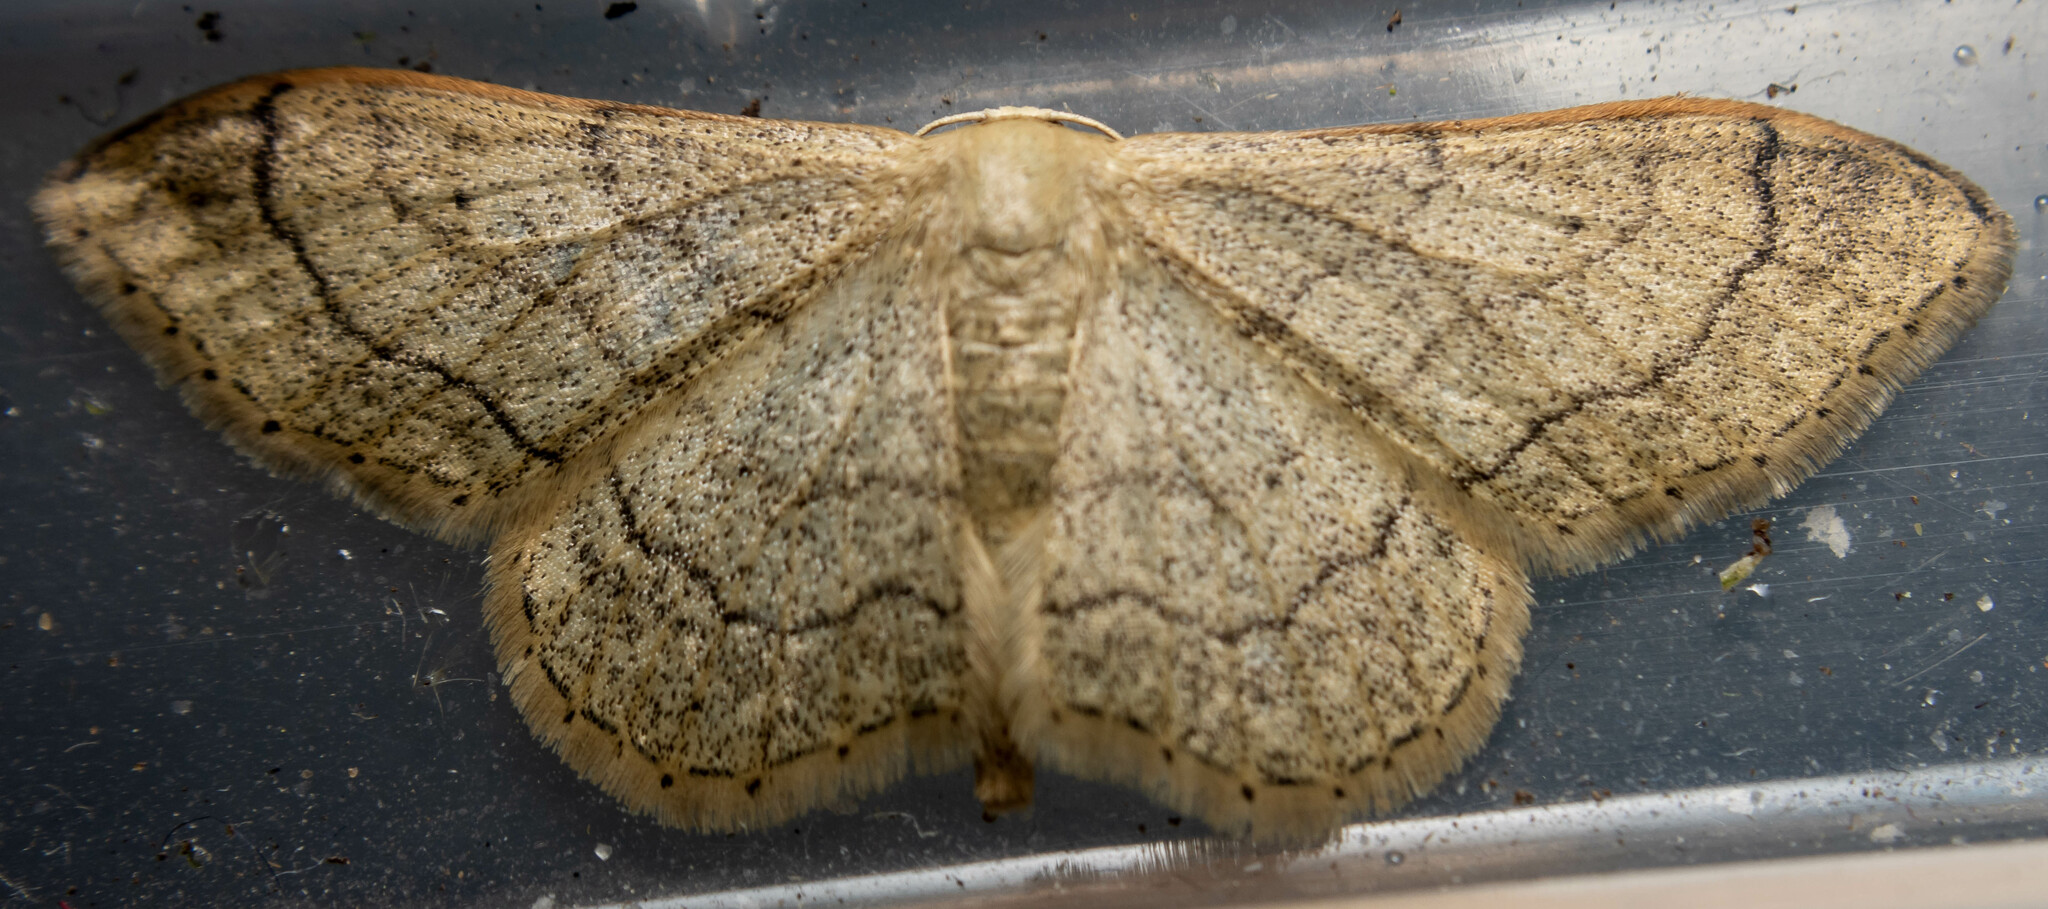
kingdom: Animalia
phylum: Arthropoda
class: Insecta
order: Lepidoptera
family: Geometridae
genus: Idaea
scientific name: Idaea aversata
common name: Riband wave
